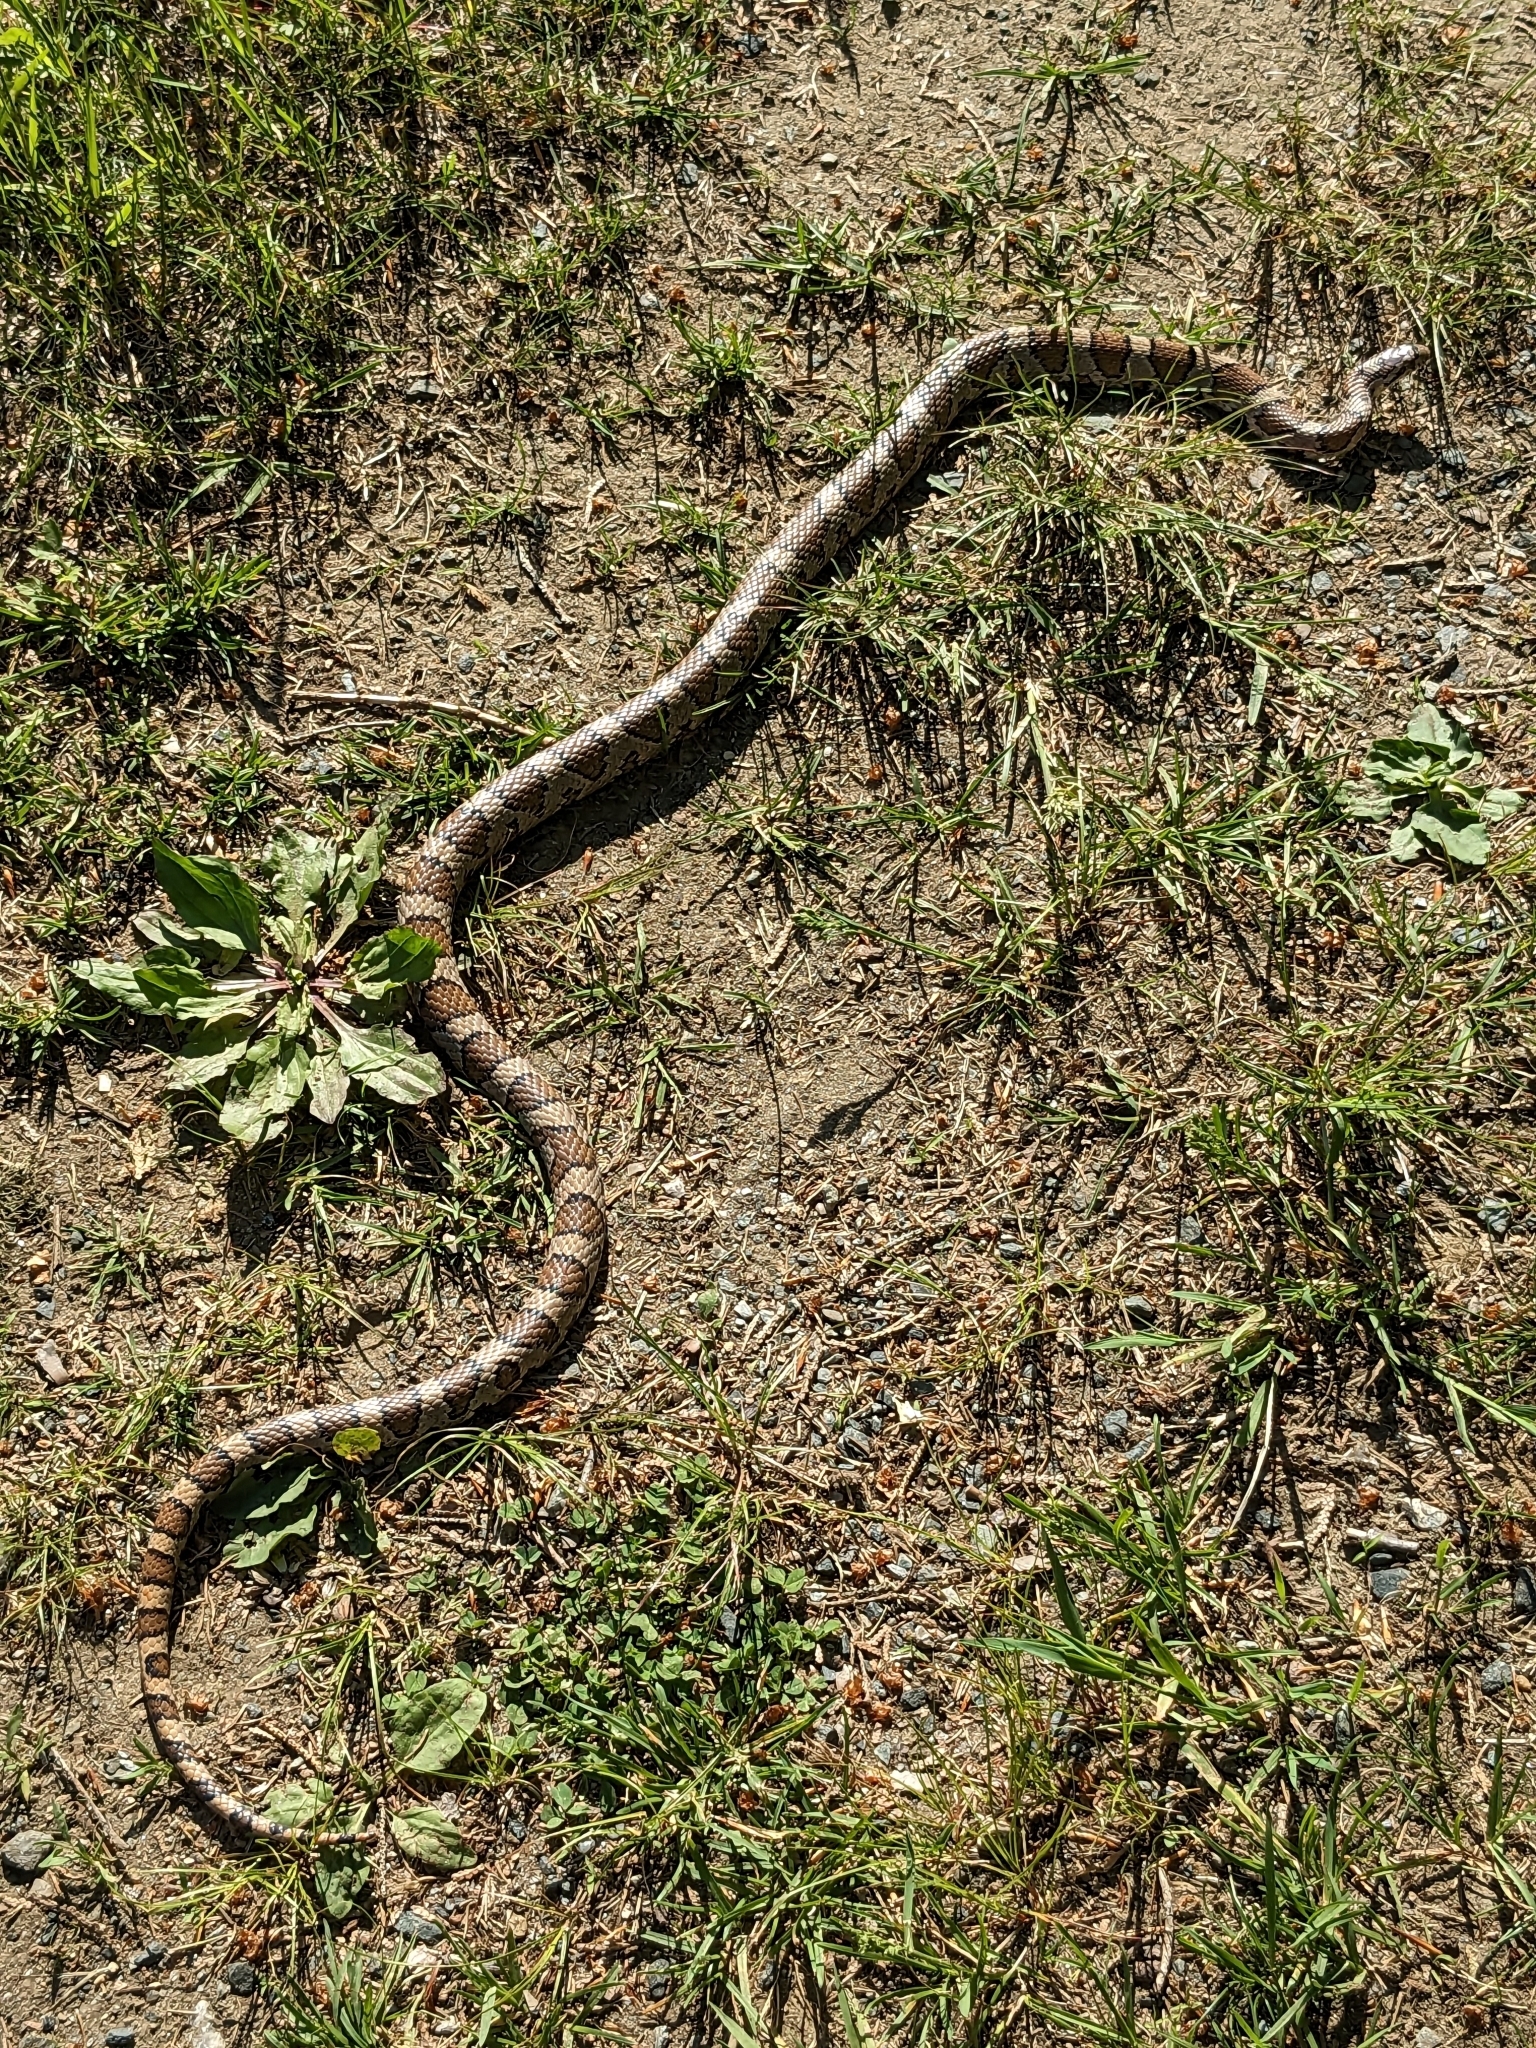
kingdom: Animalia
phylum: Chordata
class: Squamata
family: Colubridae
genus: Lampropeltis
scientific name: Lampropeltis triangulum
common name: Eastern milksnake
